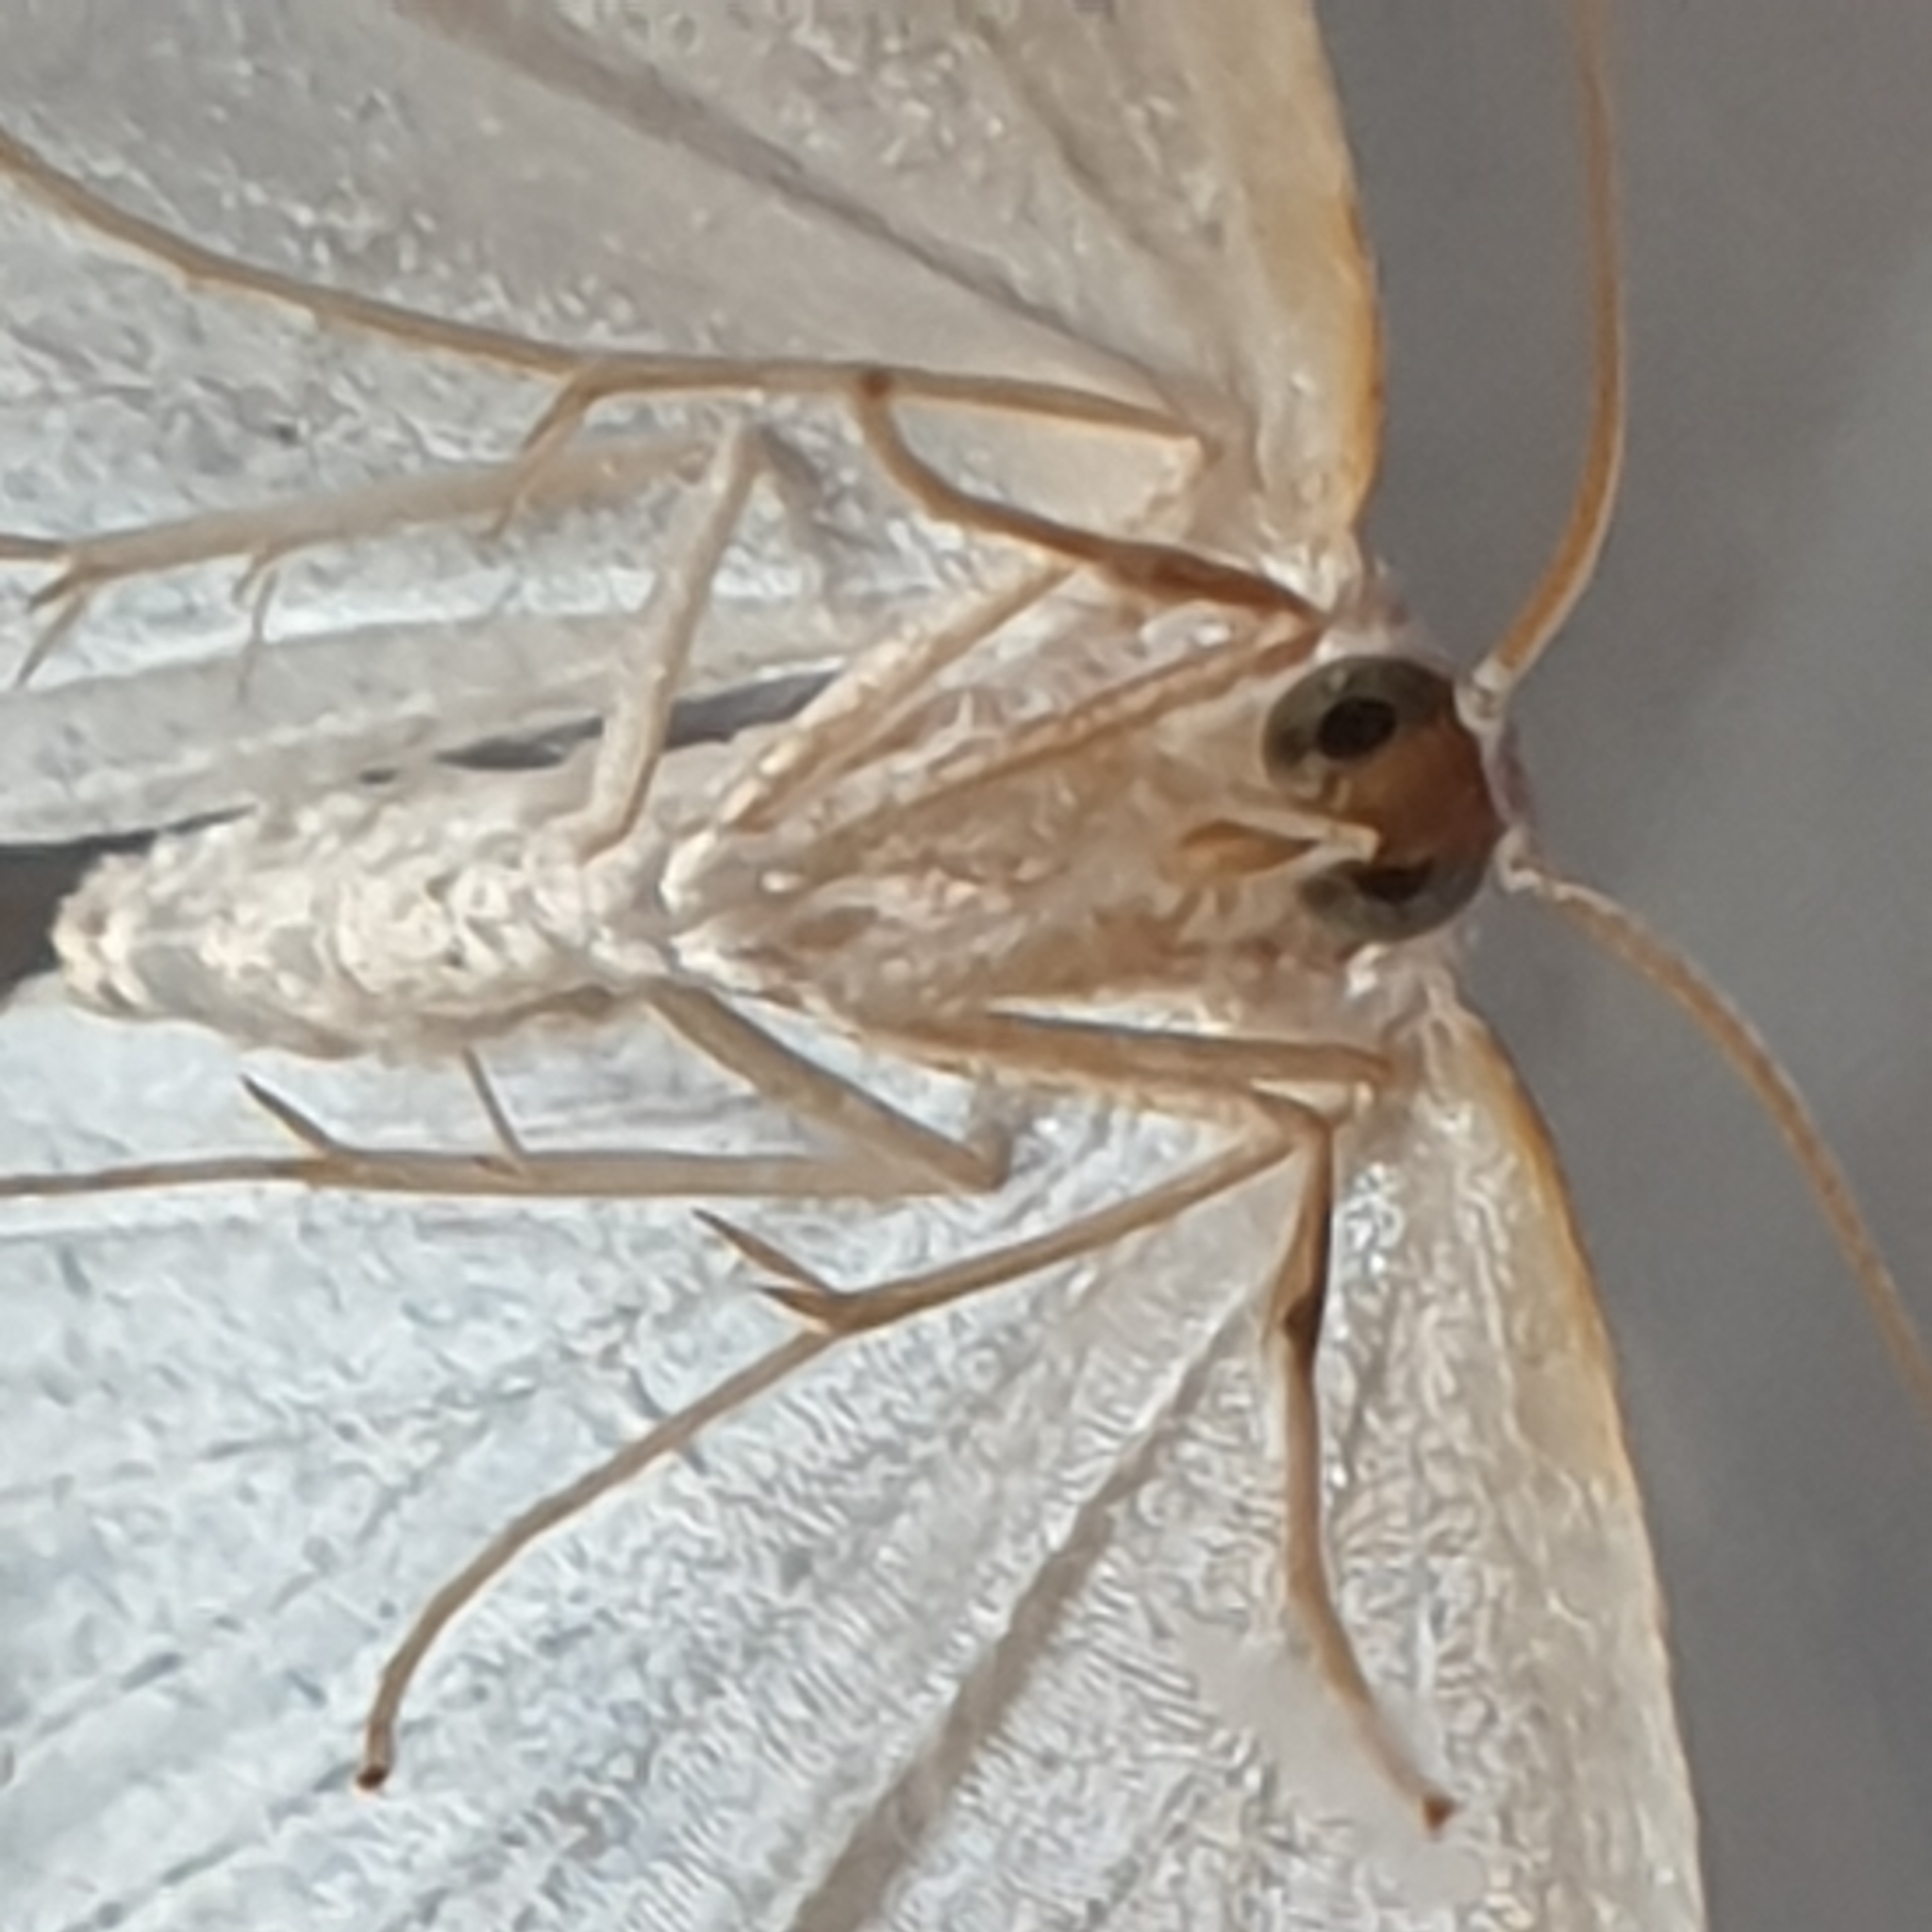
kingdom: Animalia
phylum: Arthropoda
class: Insecta
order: Lepidoptera
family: Geometridae
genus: Jodis
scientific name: Jodis putata
